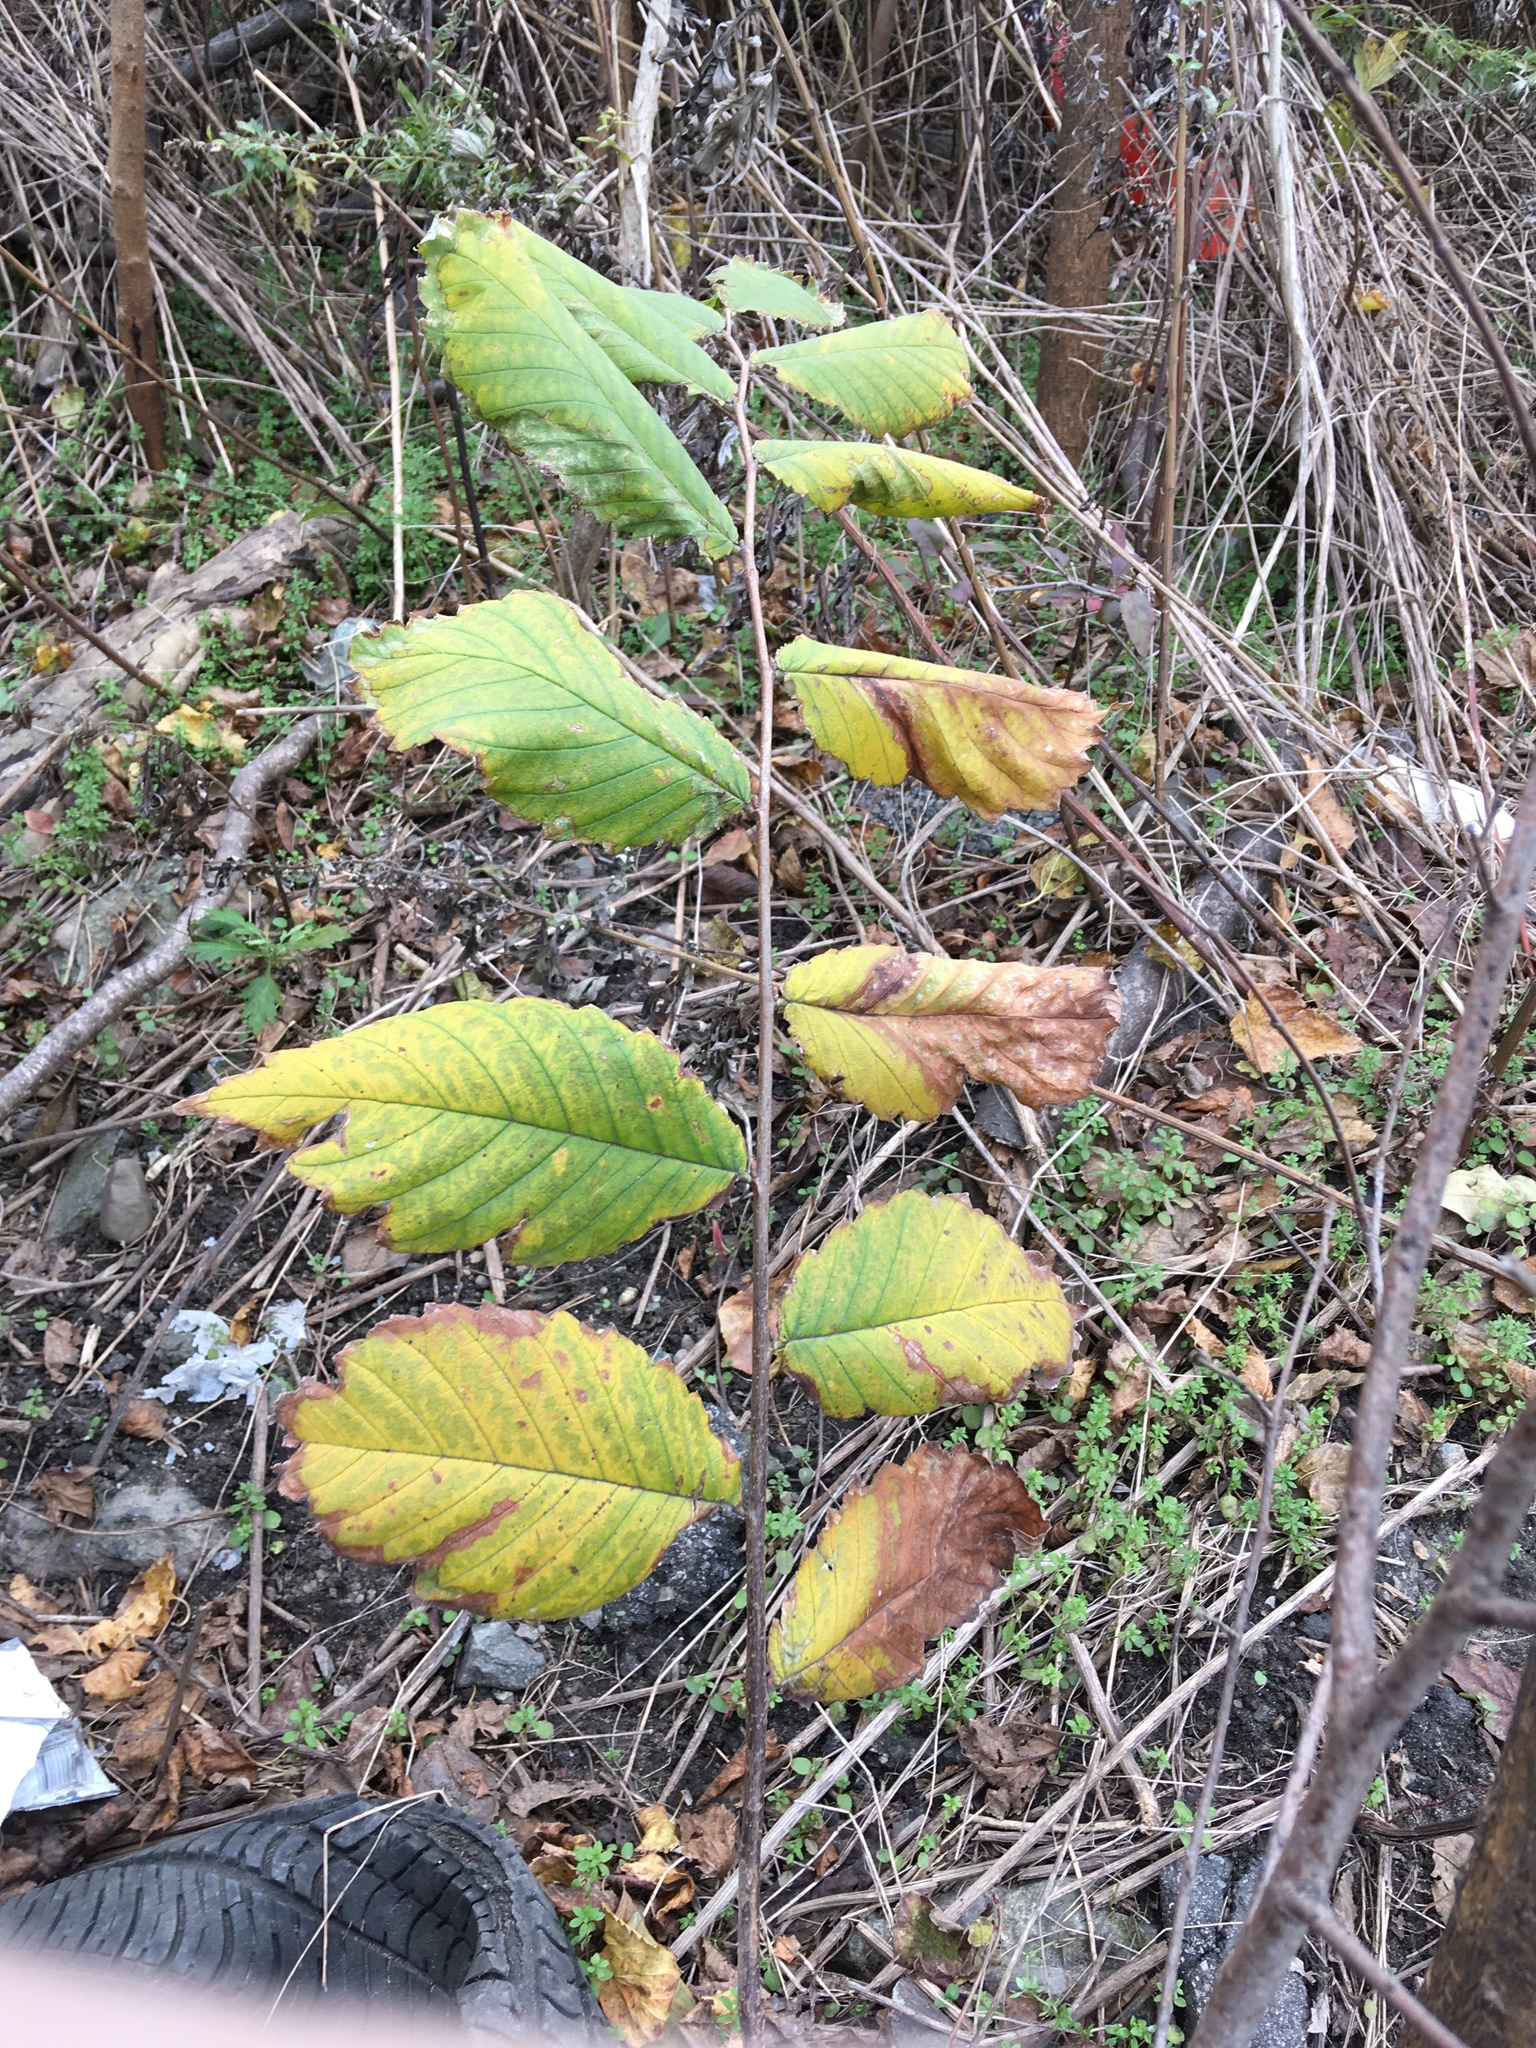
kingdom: Plantae
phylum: Tracheophyta
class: Magnoliopsida
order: Rosales
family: Ulmaceae
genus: Ulmus
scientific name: Ulmus americana
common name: American elm
